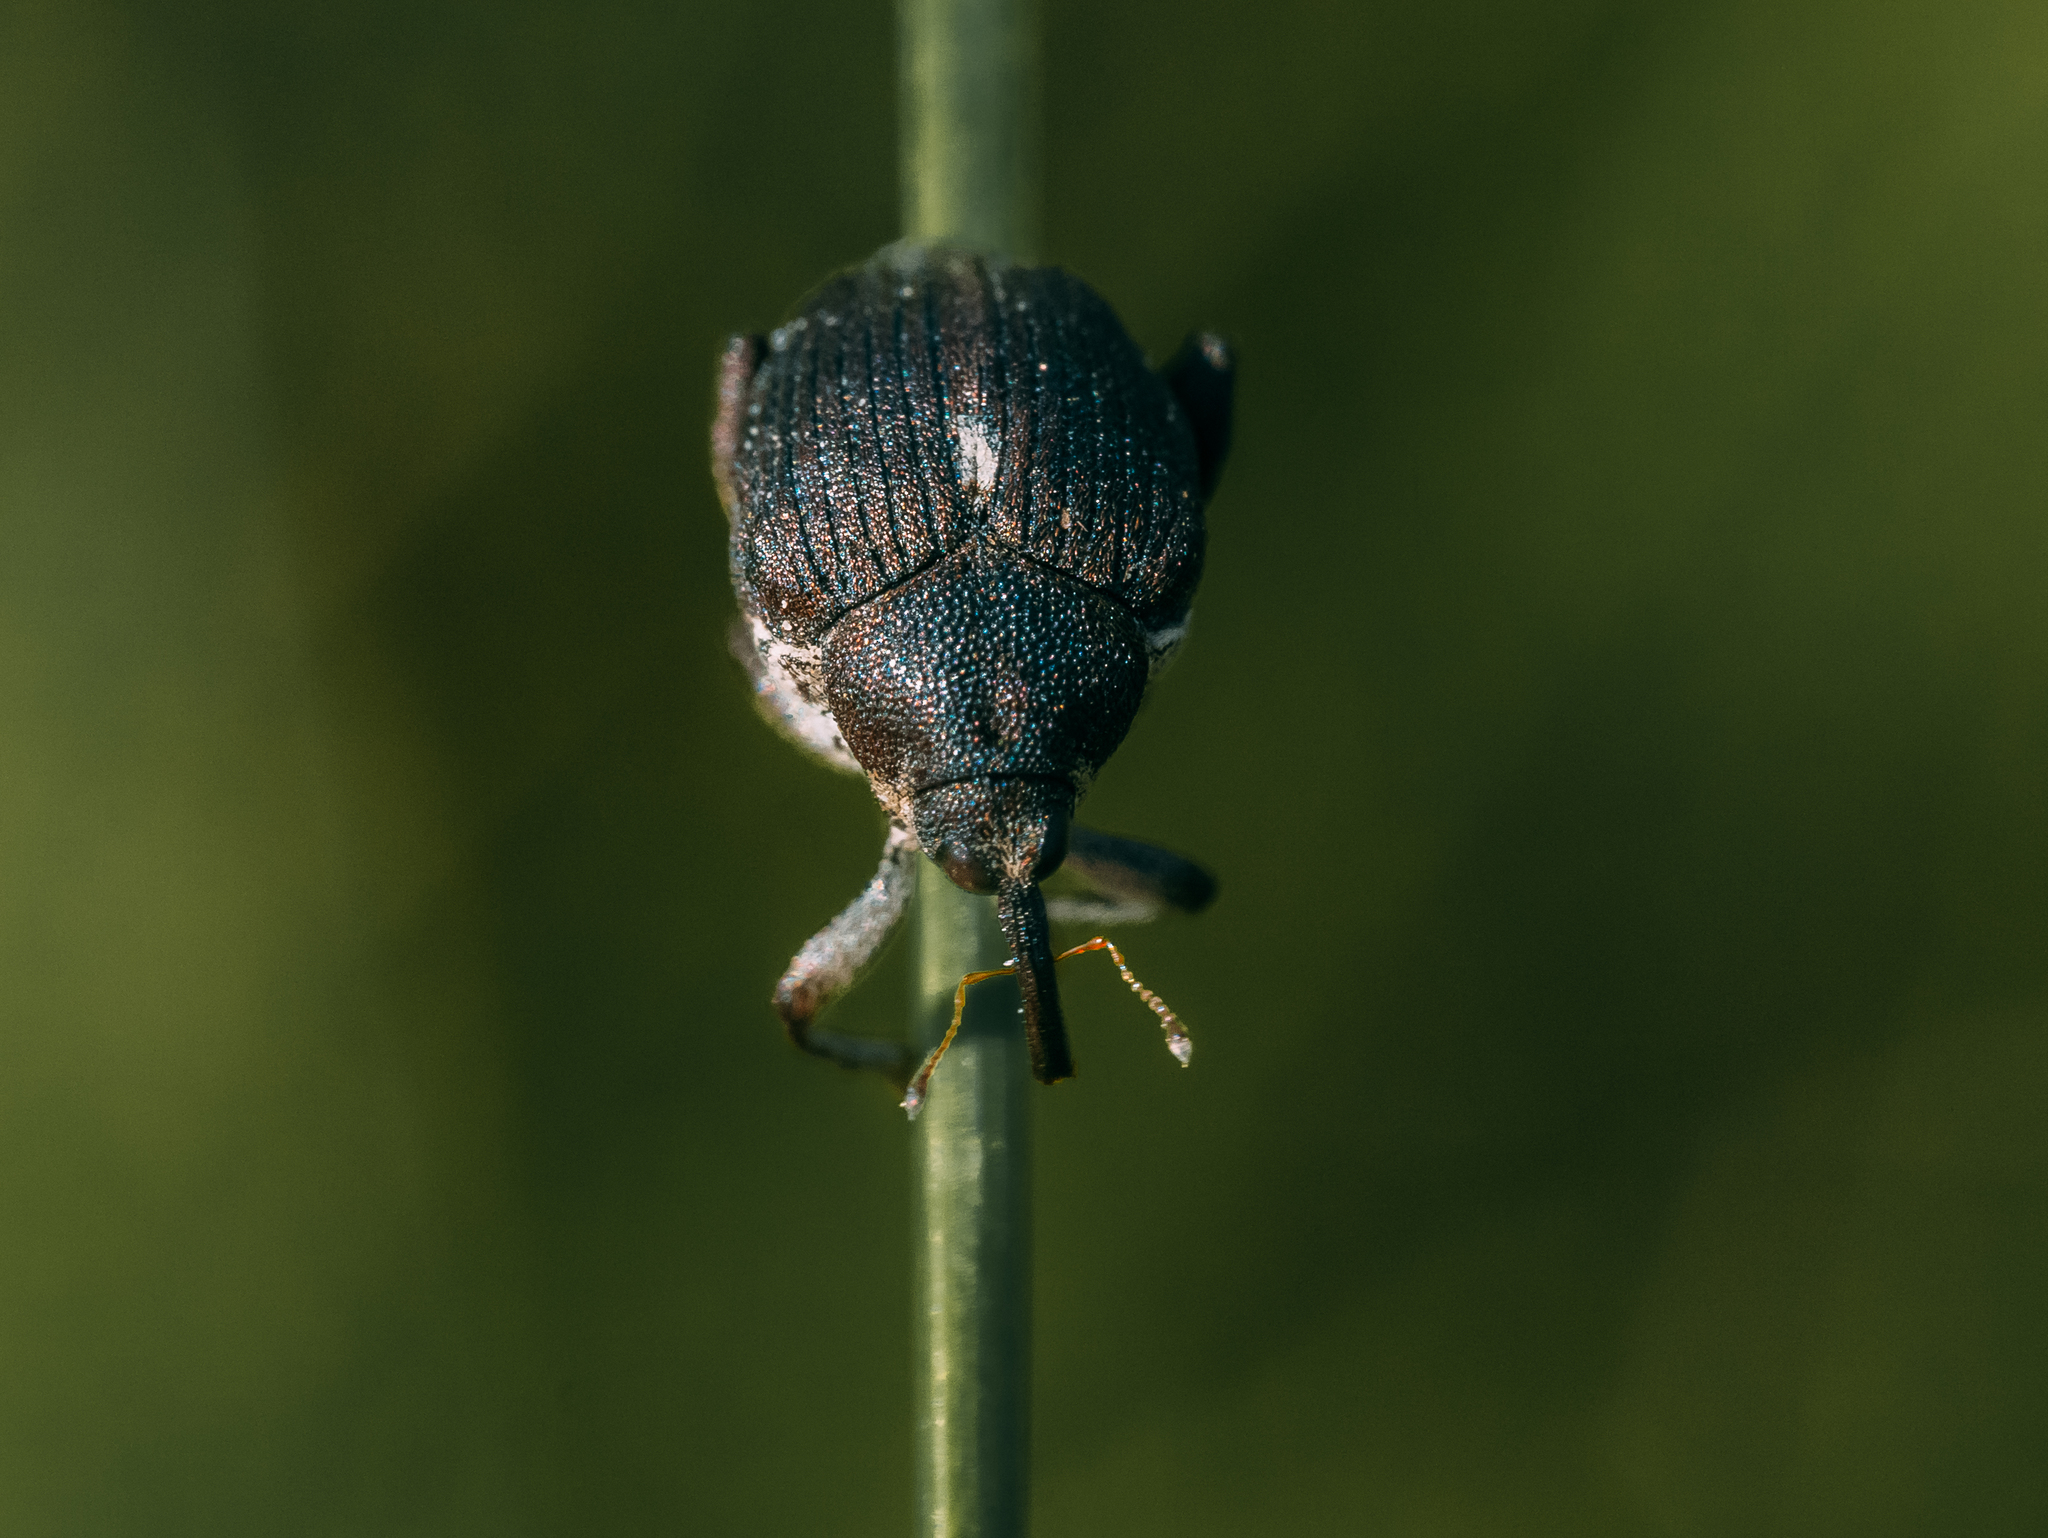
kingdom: Animalia
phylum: Arthropoda
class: Insecta
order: Coleoptera
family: Curculionidae
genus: Mononychus
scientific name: Mononychus punctumalbum
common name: Iris weevil
